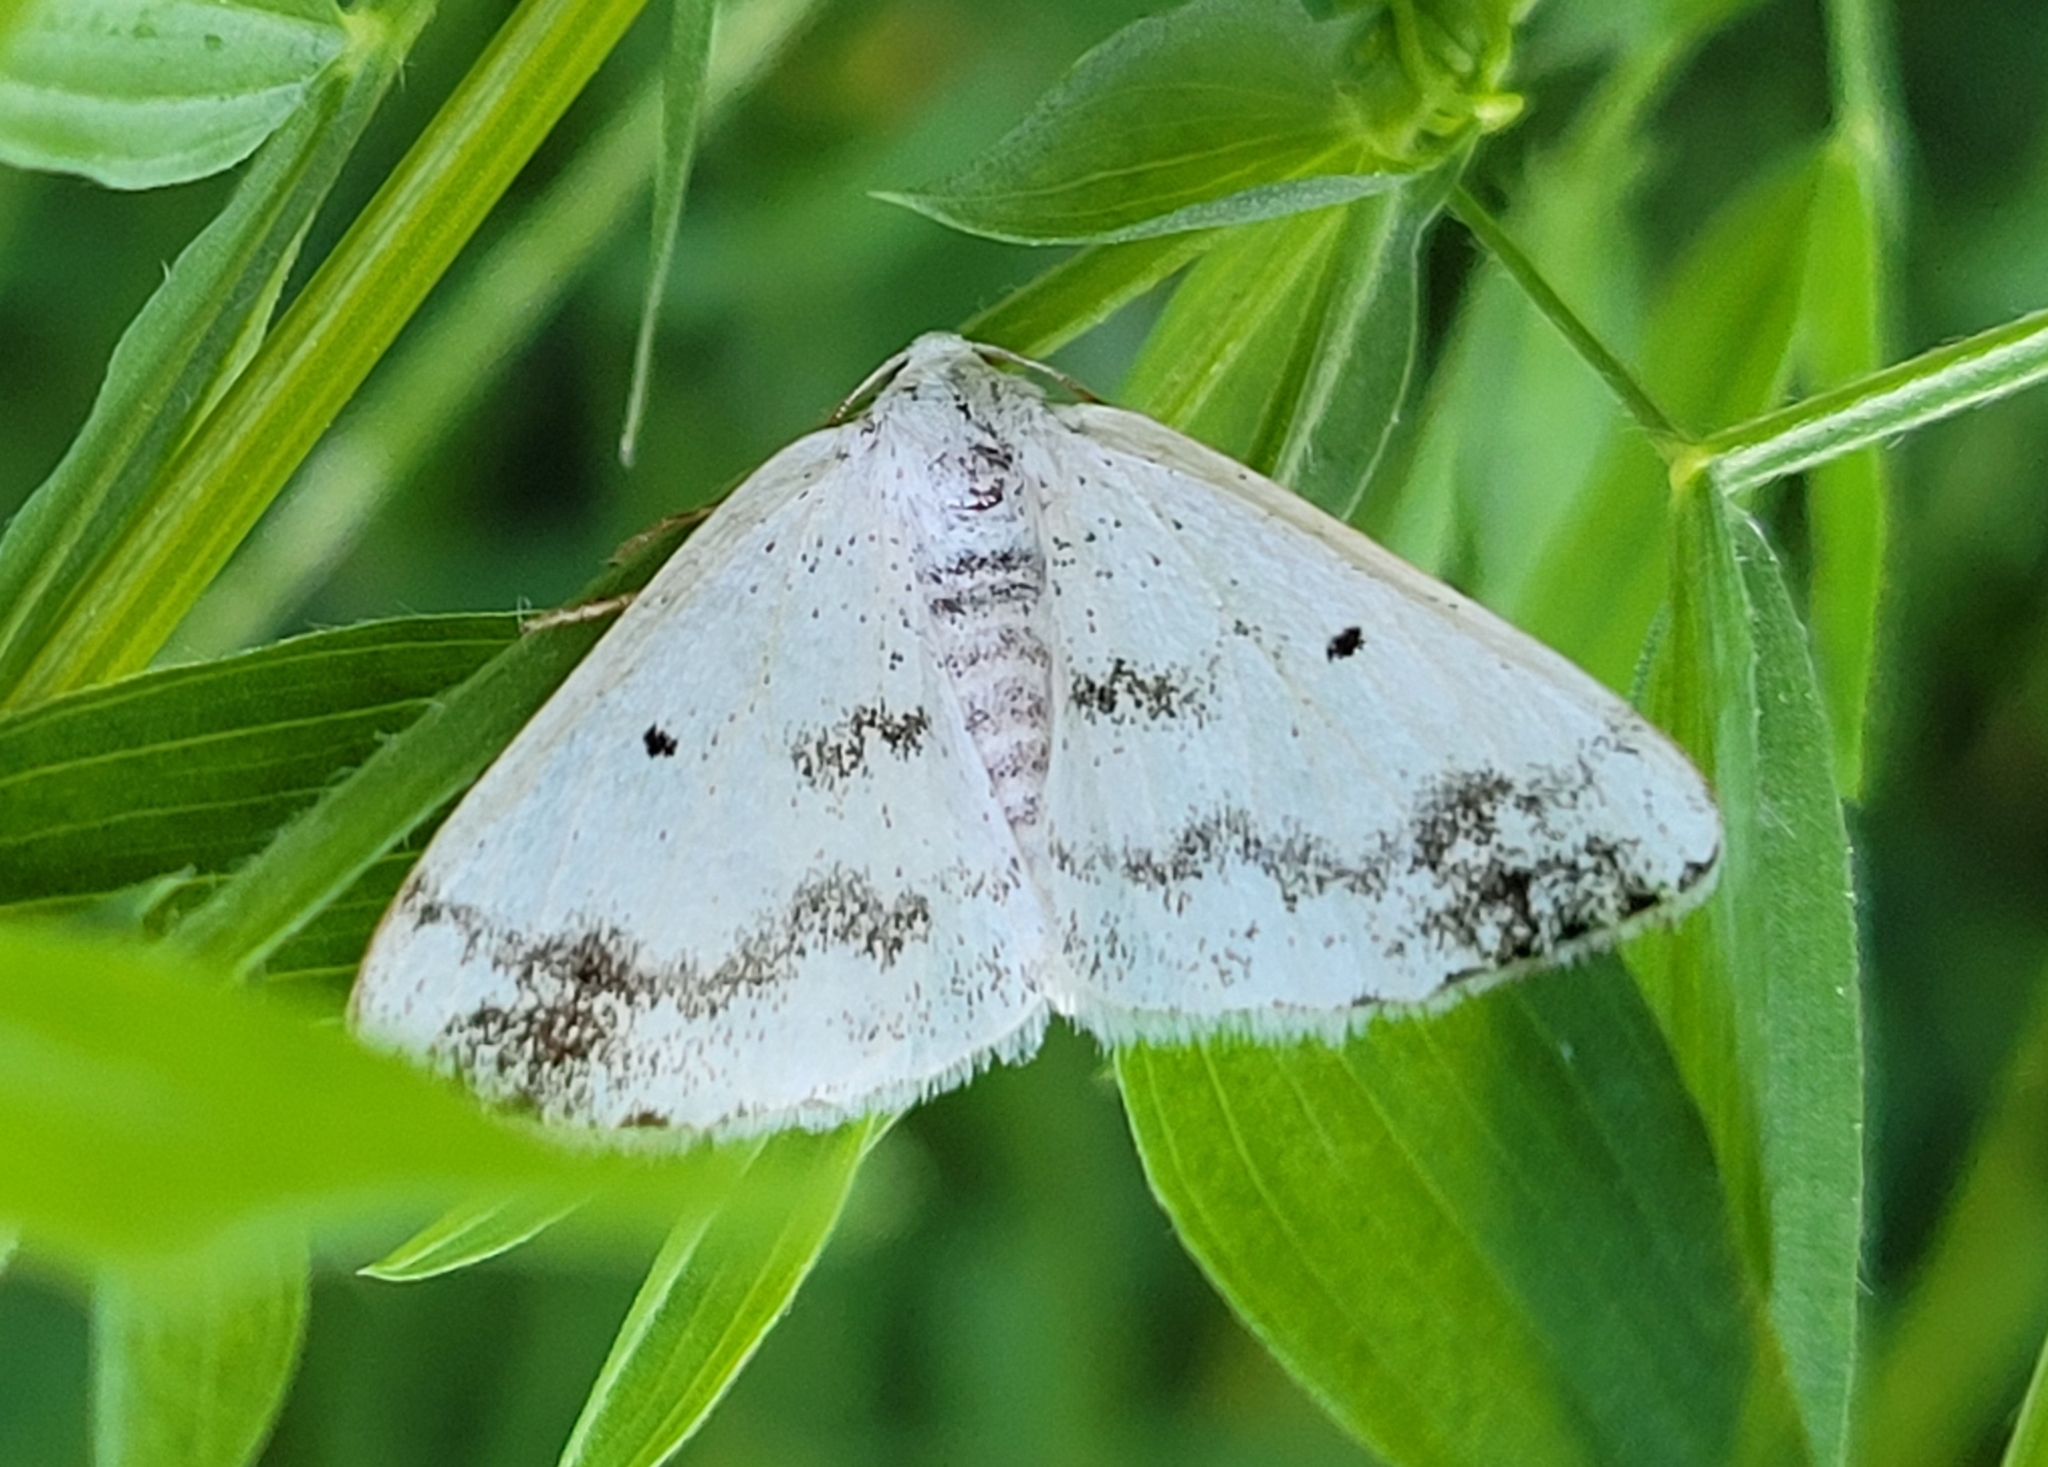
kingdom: Animalia
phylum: Arthropoda
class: Insecta
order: Lepidoptera
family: Geometridae
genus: Lomographa
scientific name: Lomographa temerata
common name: Clouded silver
